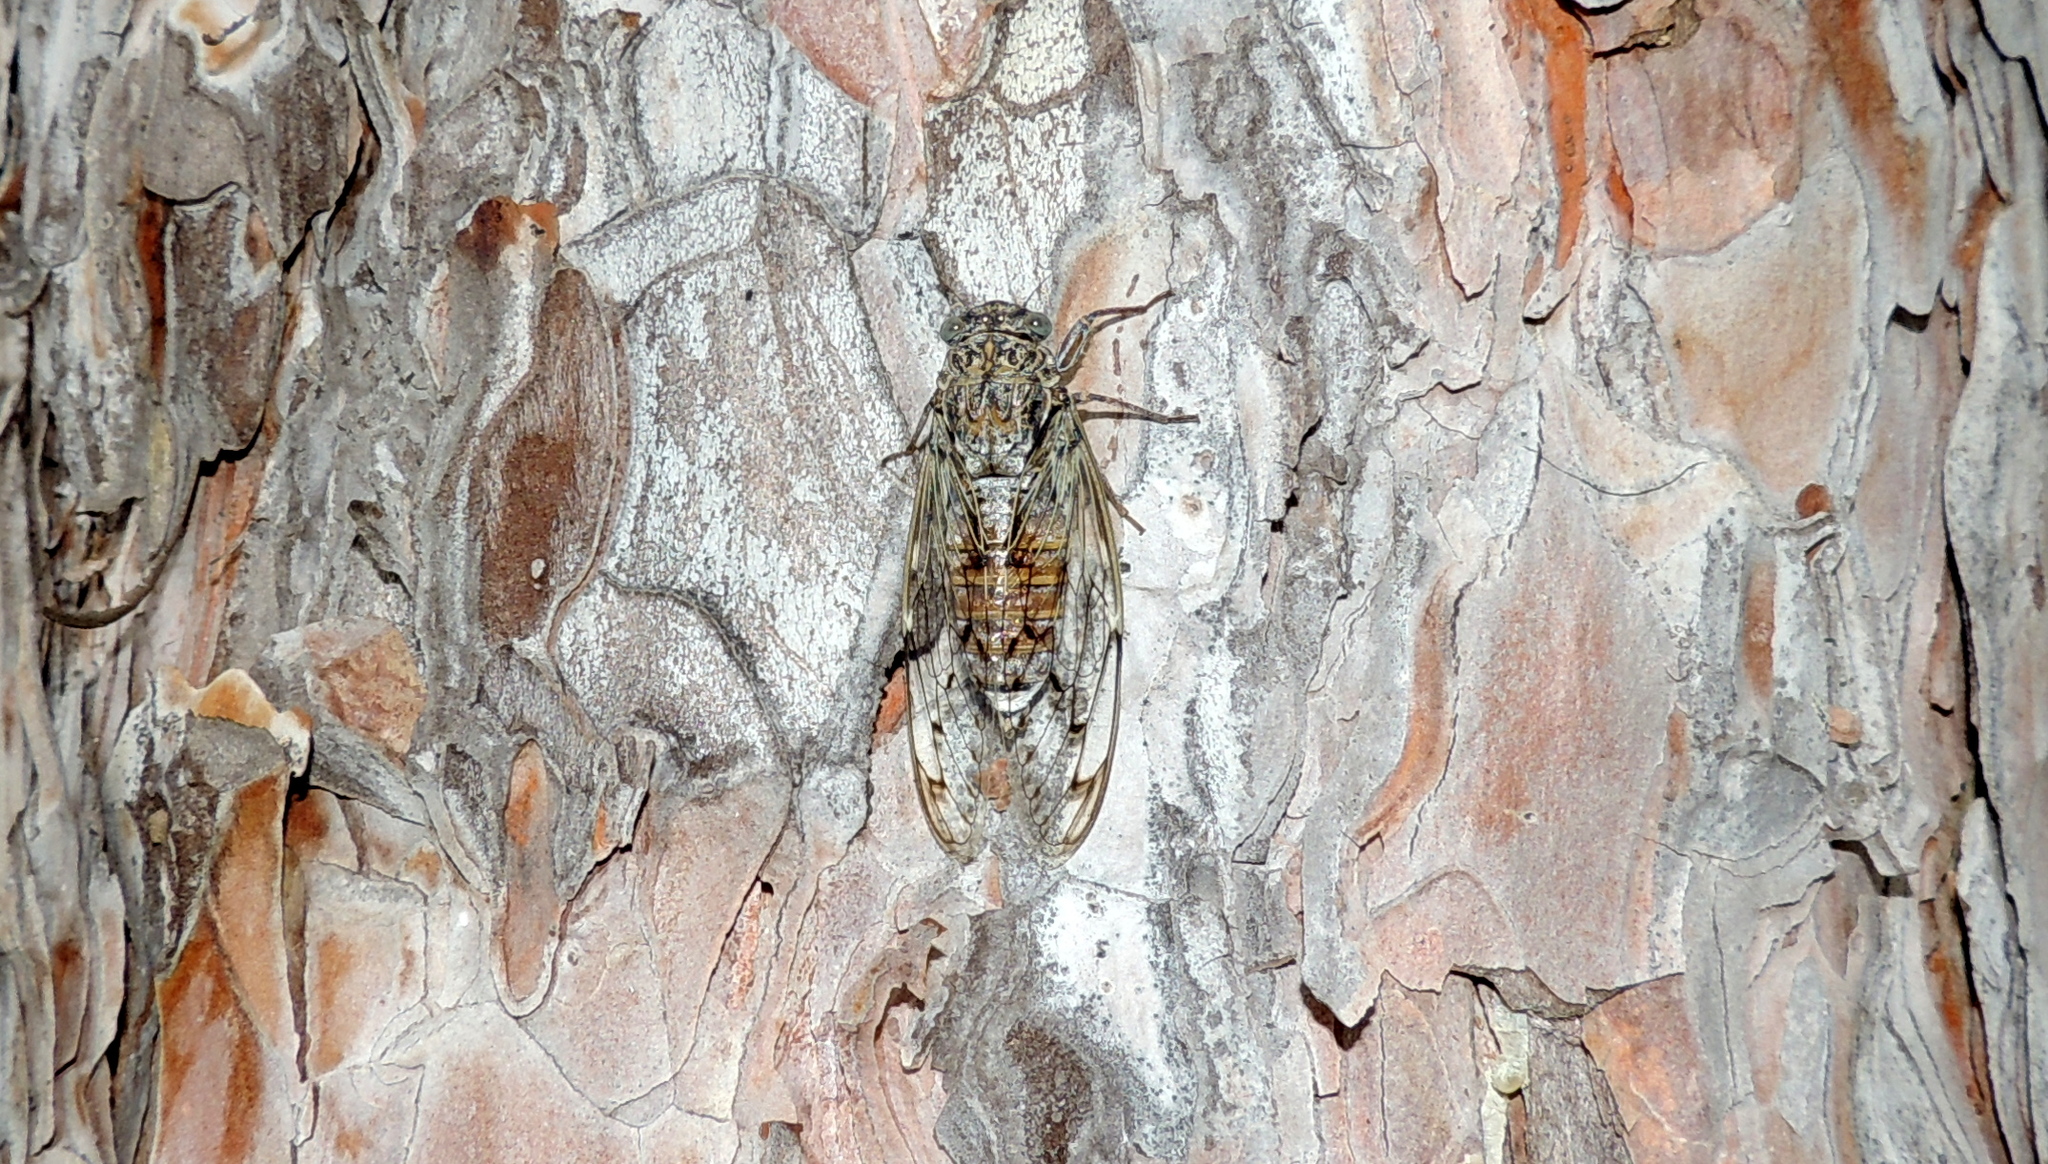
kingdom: Animalia
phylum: Arthropoda
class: Insecta
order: Hemiptera
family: Cicadidae
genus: Cicada
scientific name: Cicada orni
